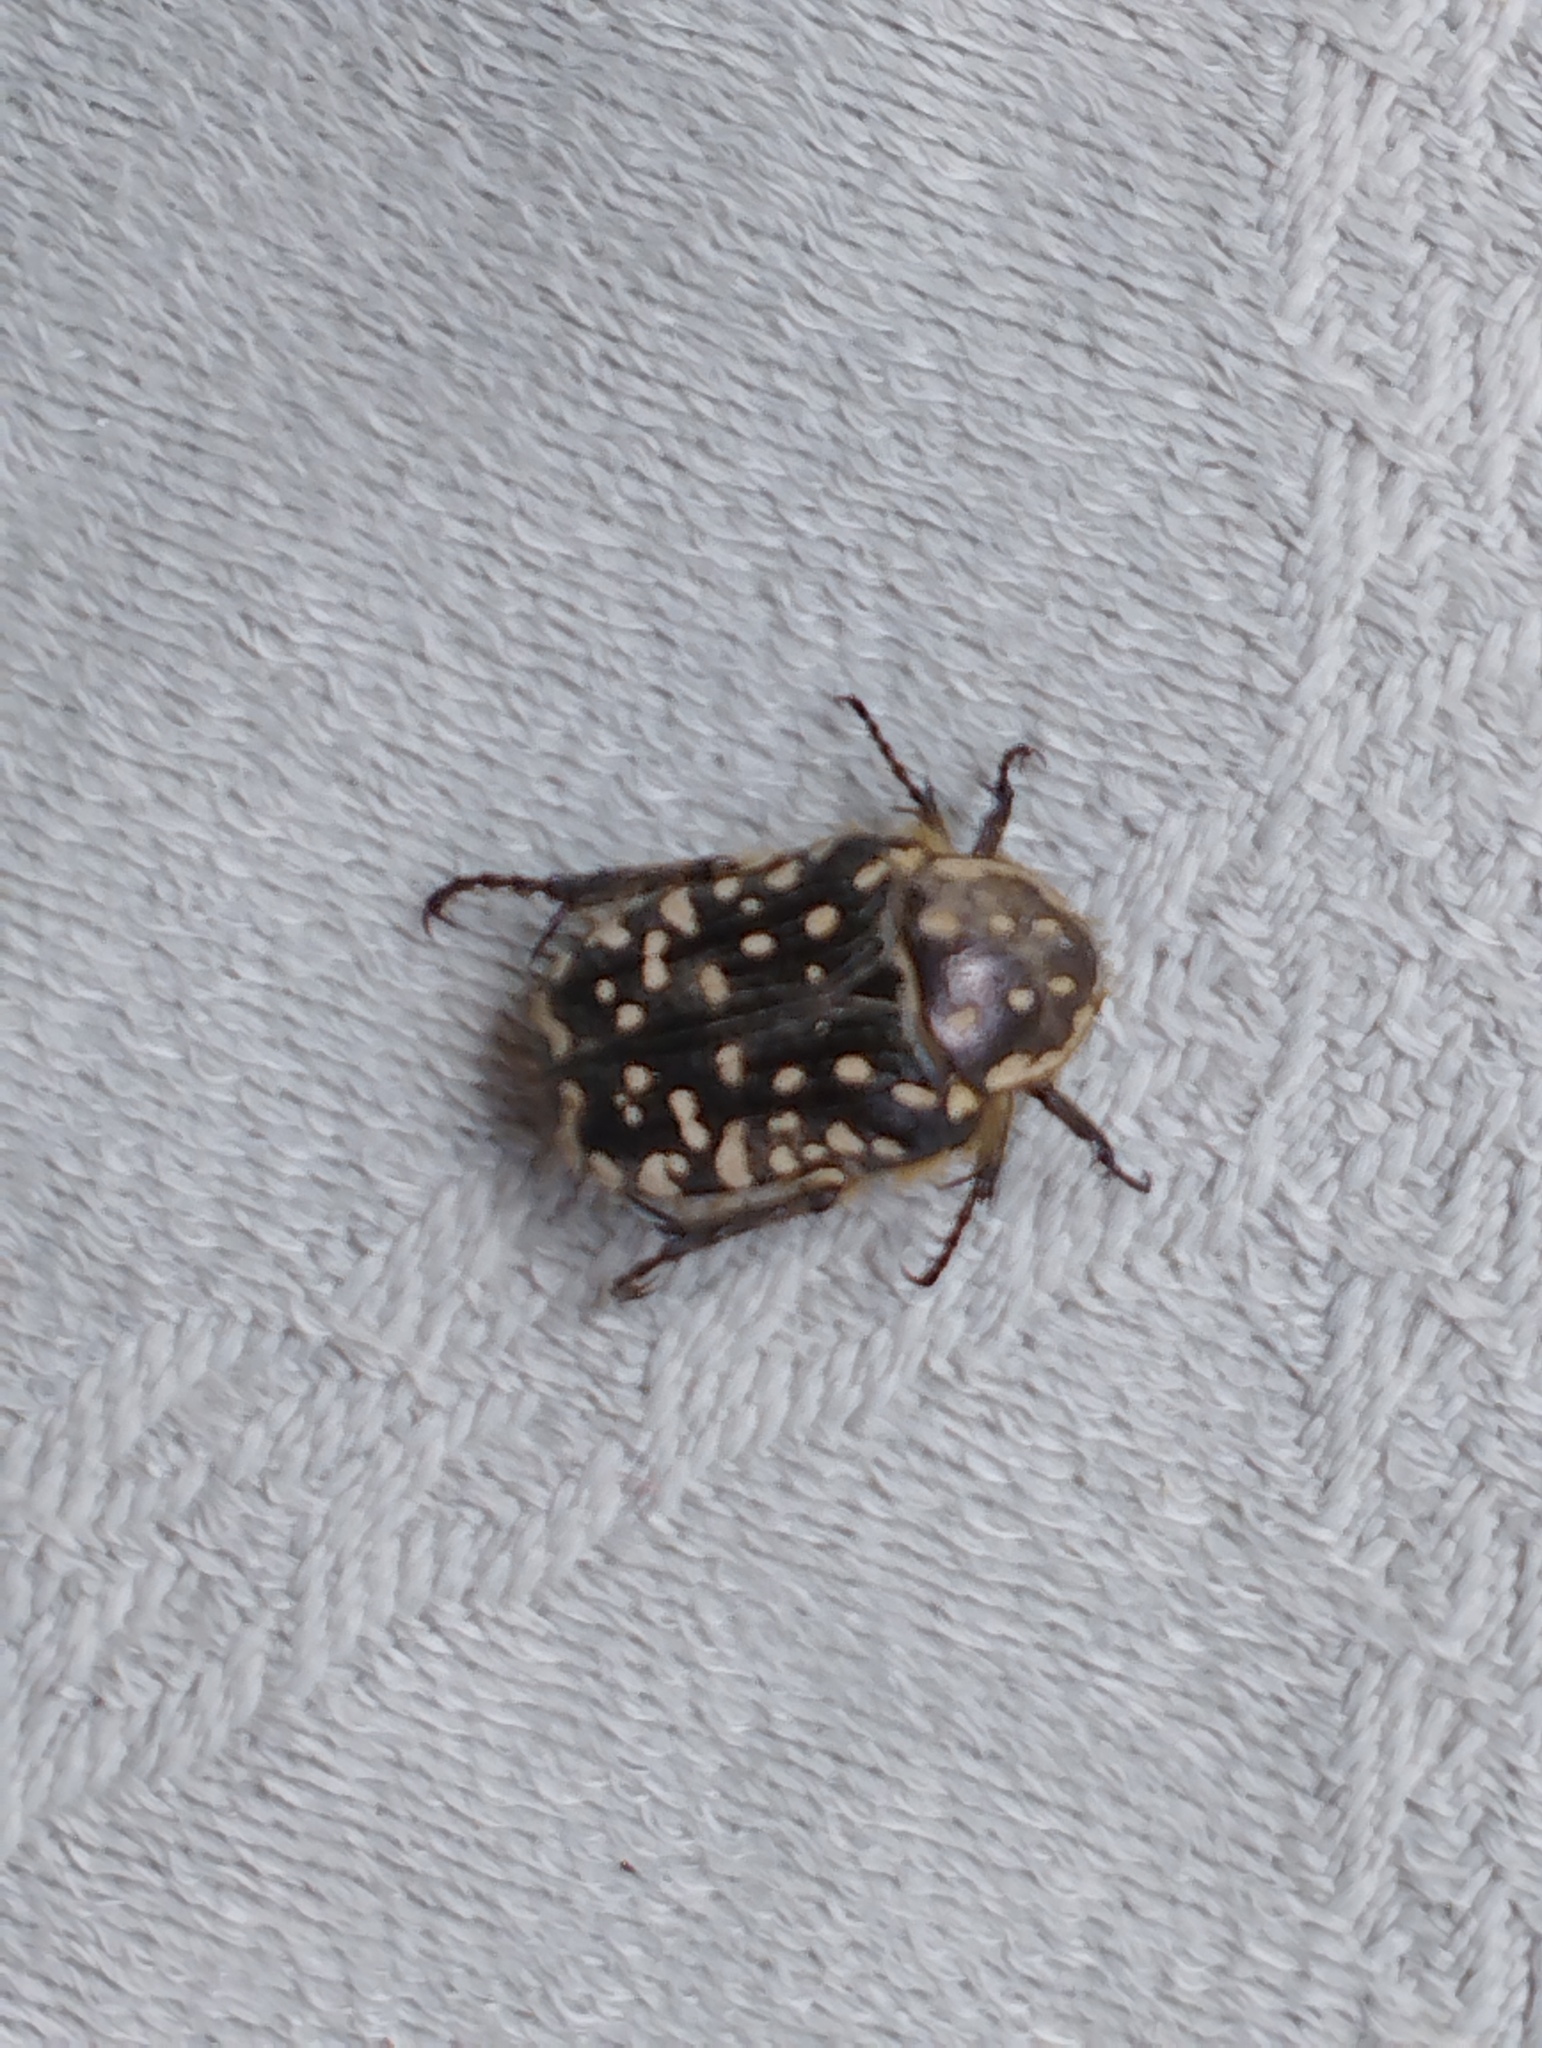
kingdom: Animalia
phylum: Arthropoda
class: Insecta
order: Coleoptera
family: Scarabaeidae
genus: Oxythyrea
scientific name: Oxythyrea pantherina
